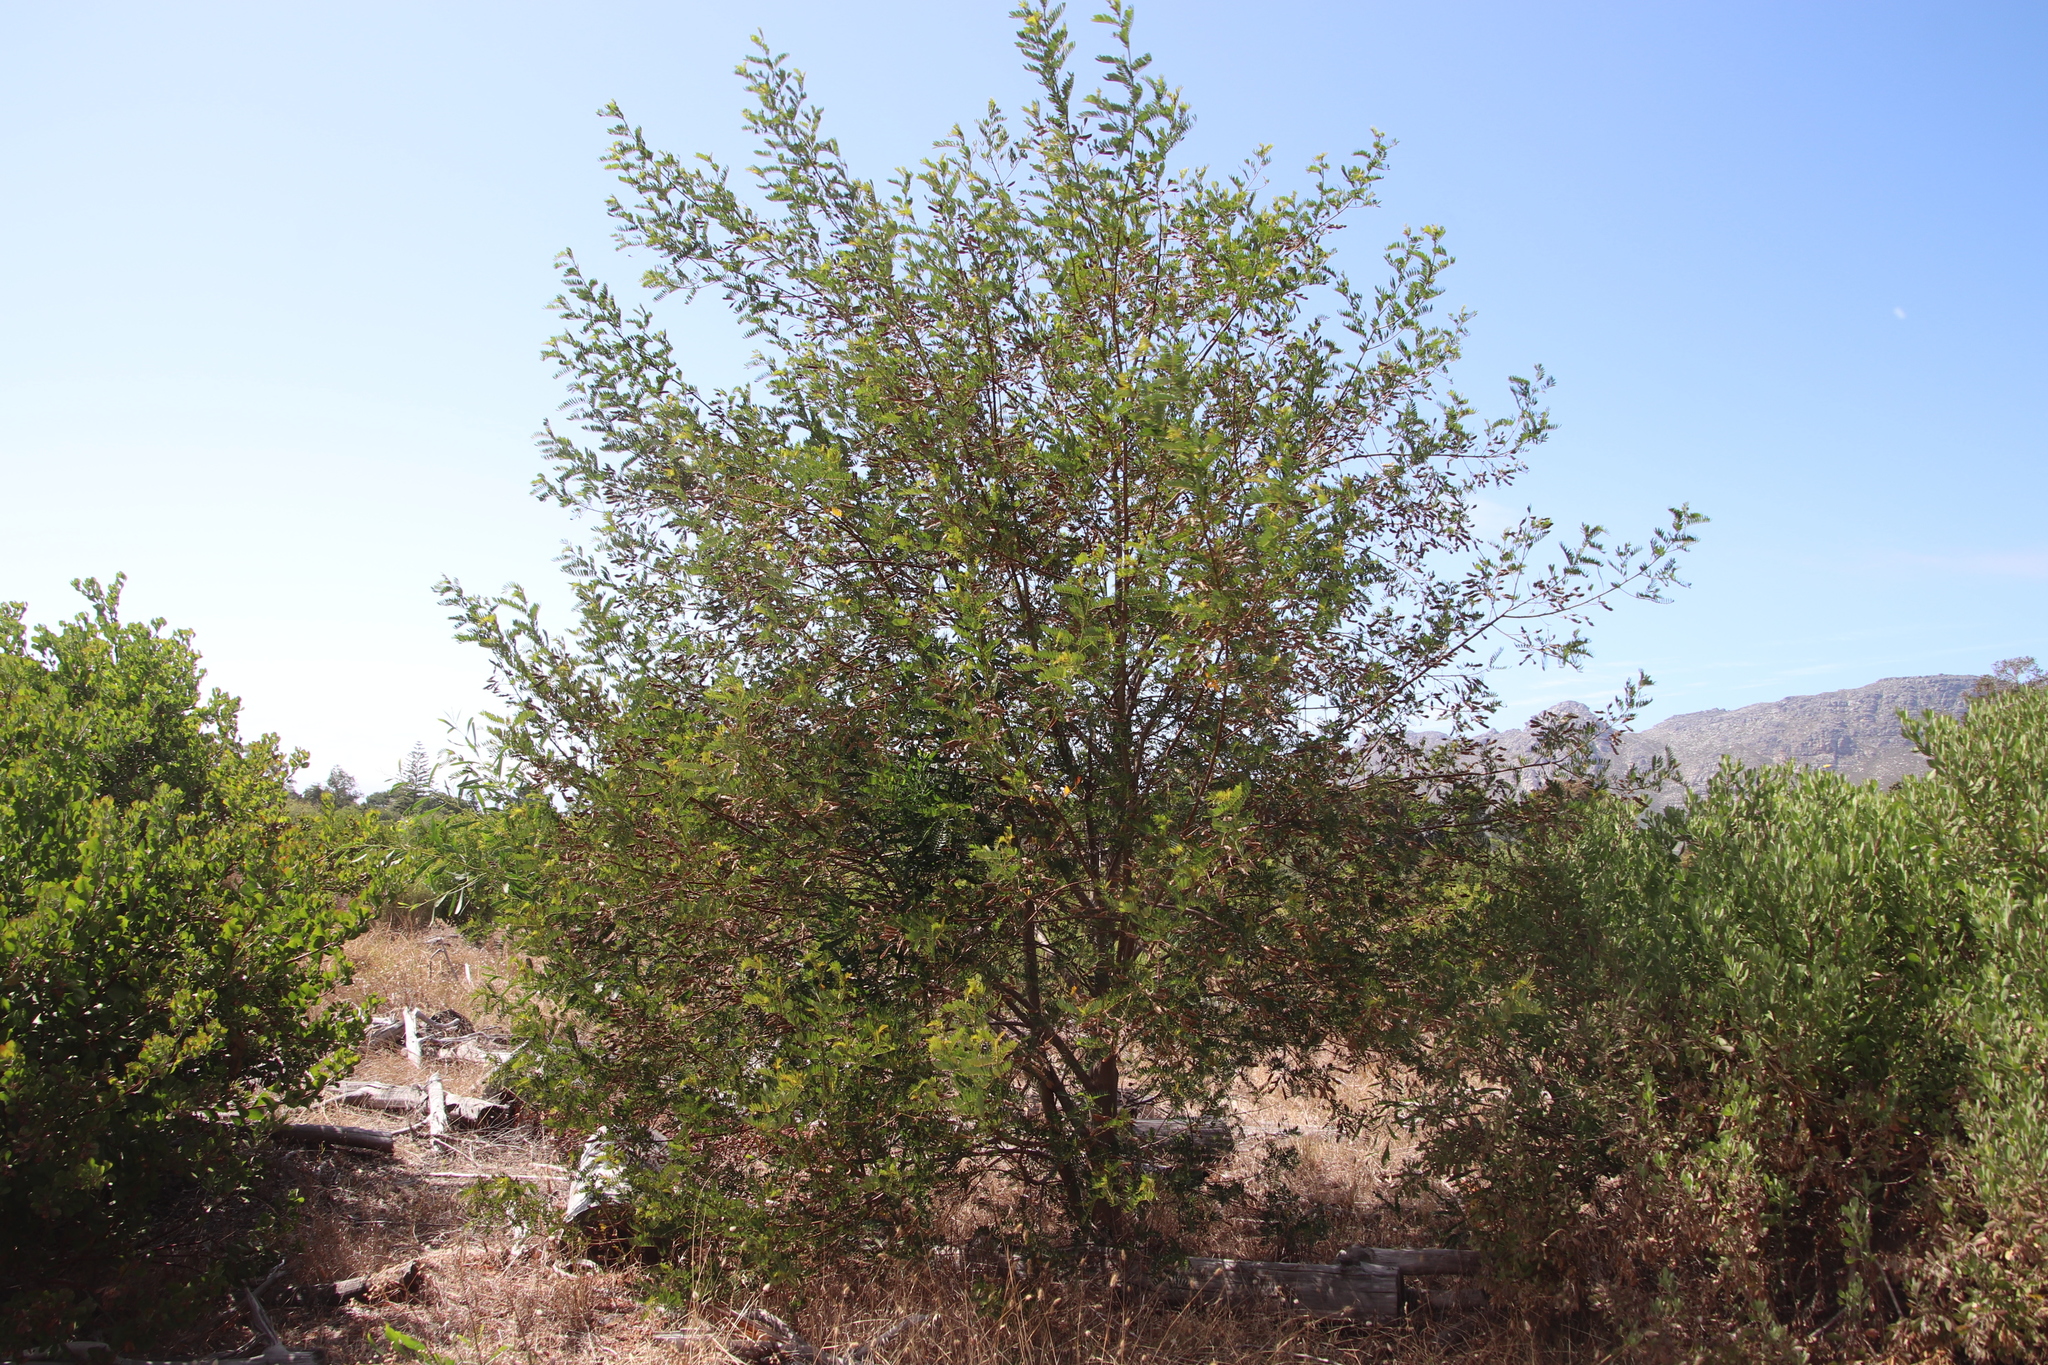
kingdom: Plantae
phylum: Tracheophyta
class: Magnoliopsida
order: Fabales
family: Fabaceae
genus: Virgilia
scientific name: Virgilia oroboides
